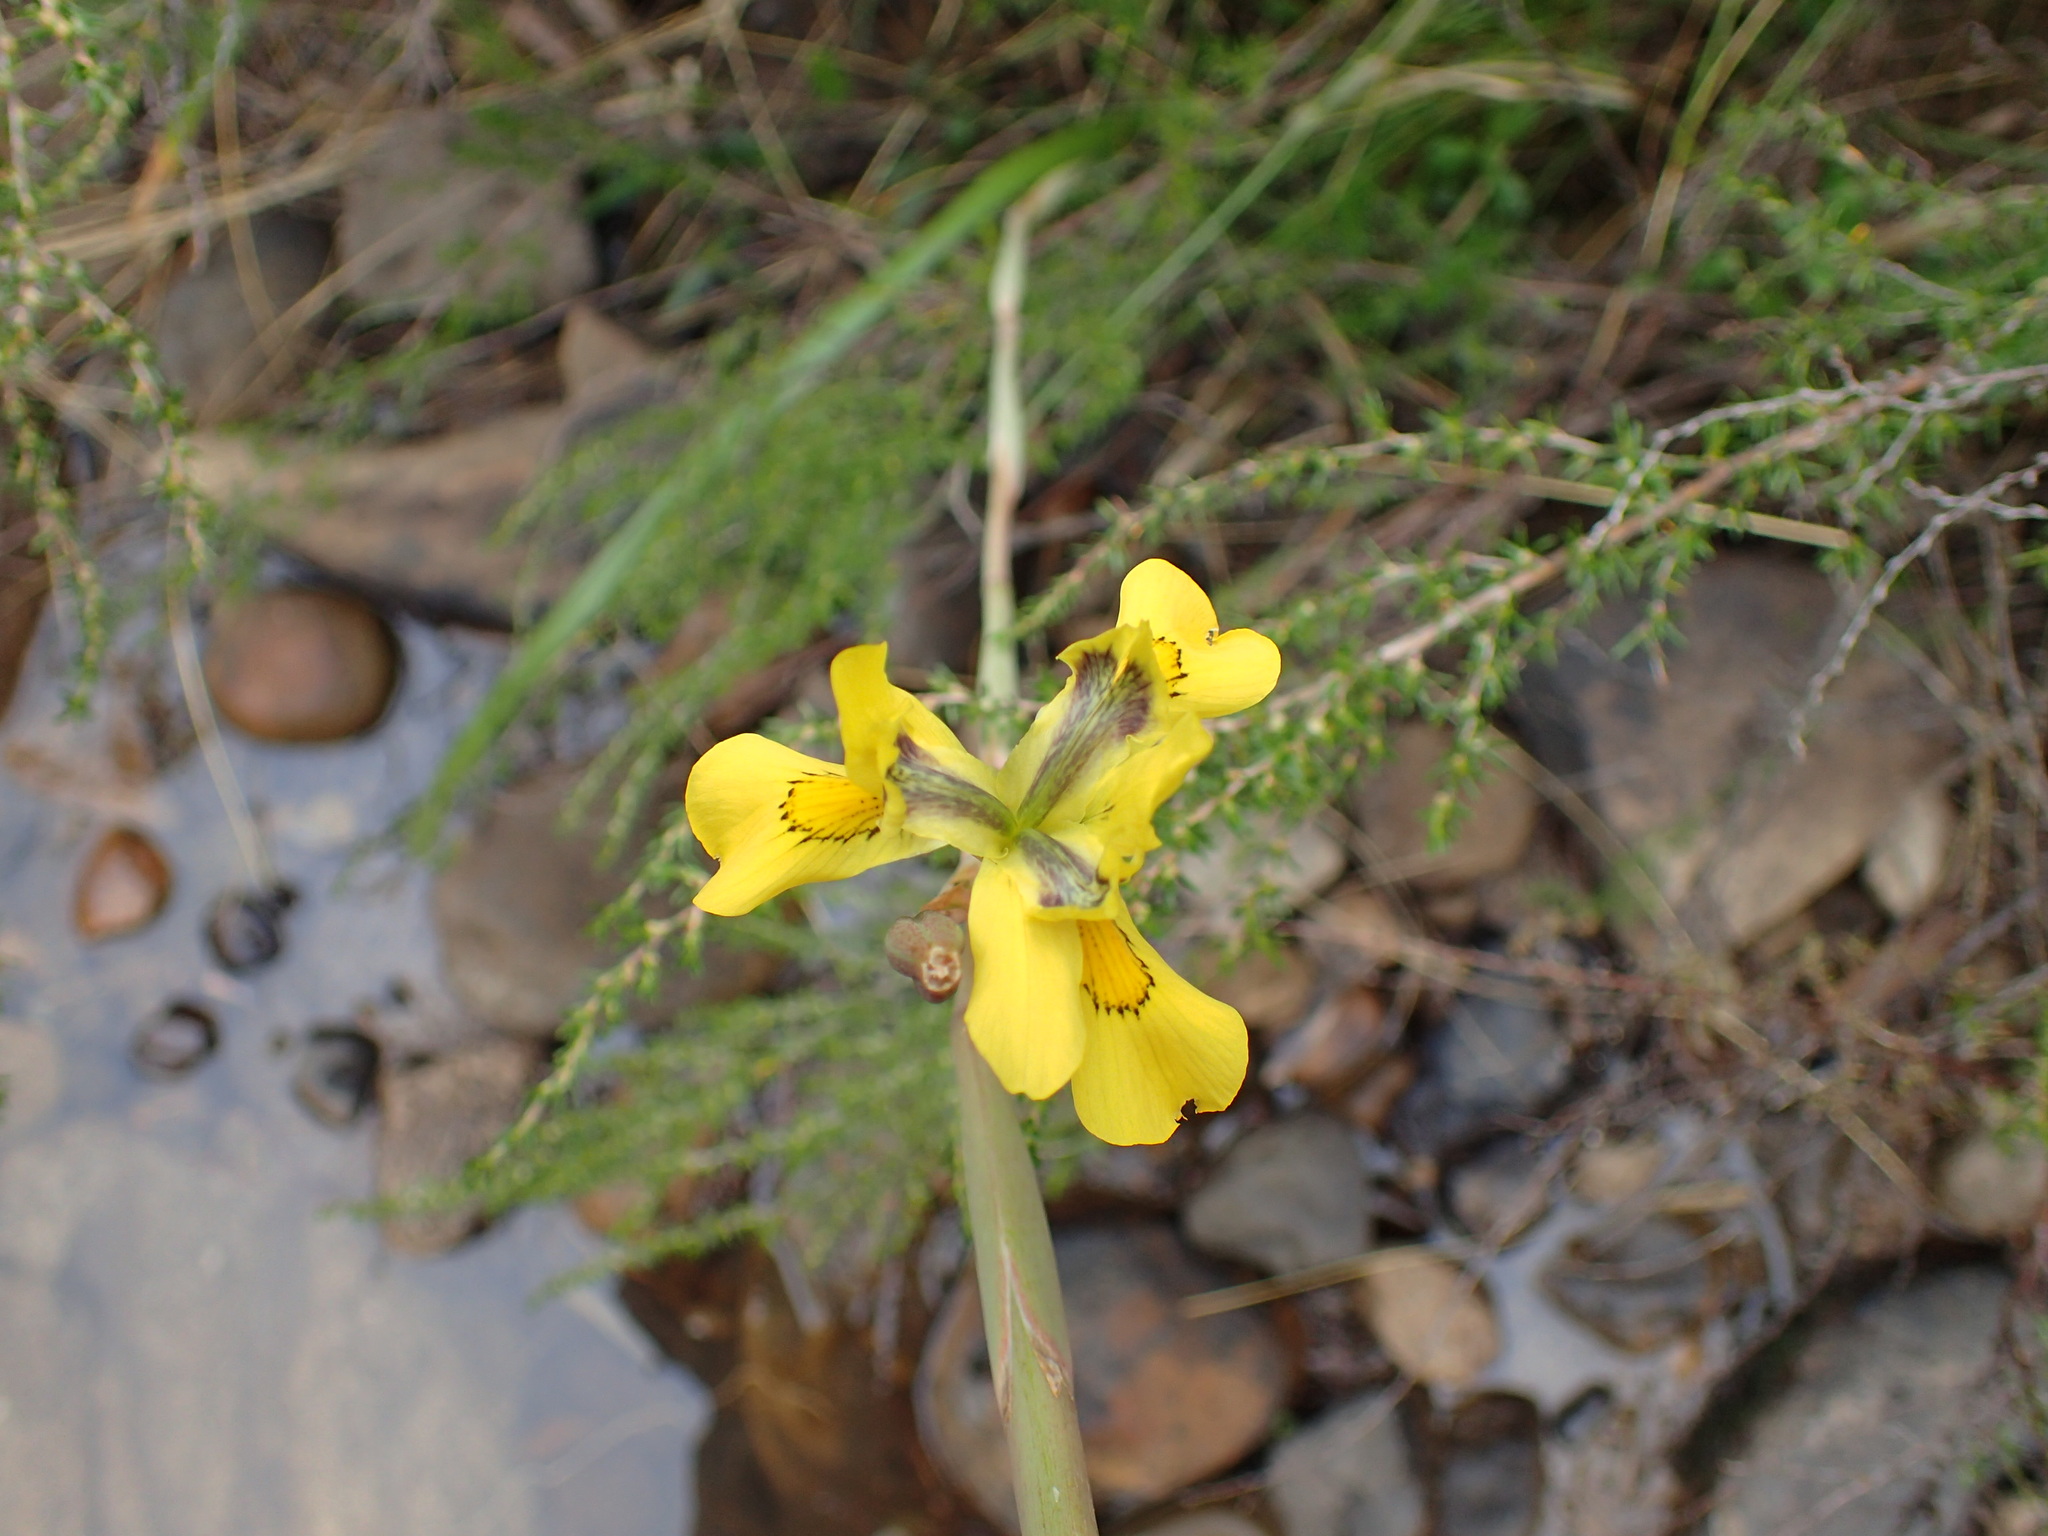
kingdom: Plantae
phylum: Tracheophyta
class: Liliopsida
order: Asparagales
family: Iridaceae
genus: Moraea
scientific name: Moraea spathulata
